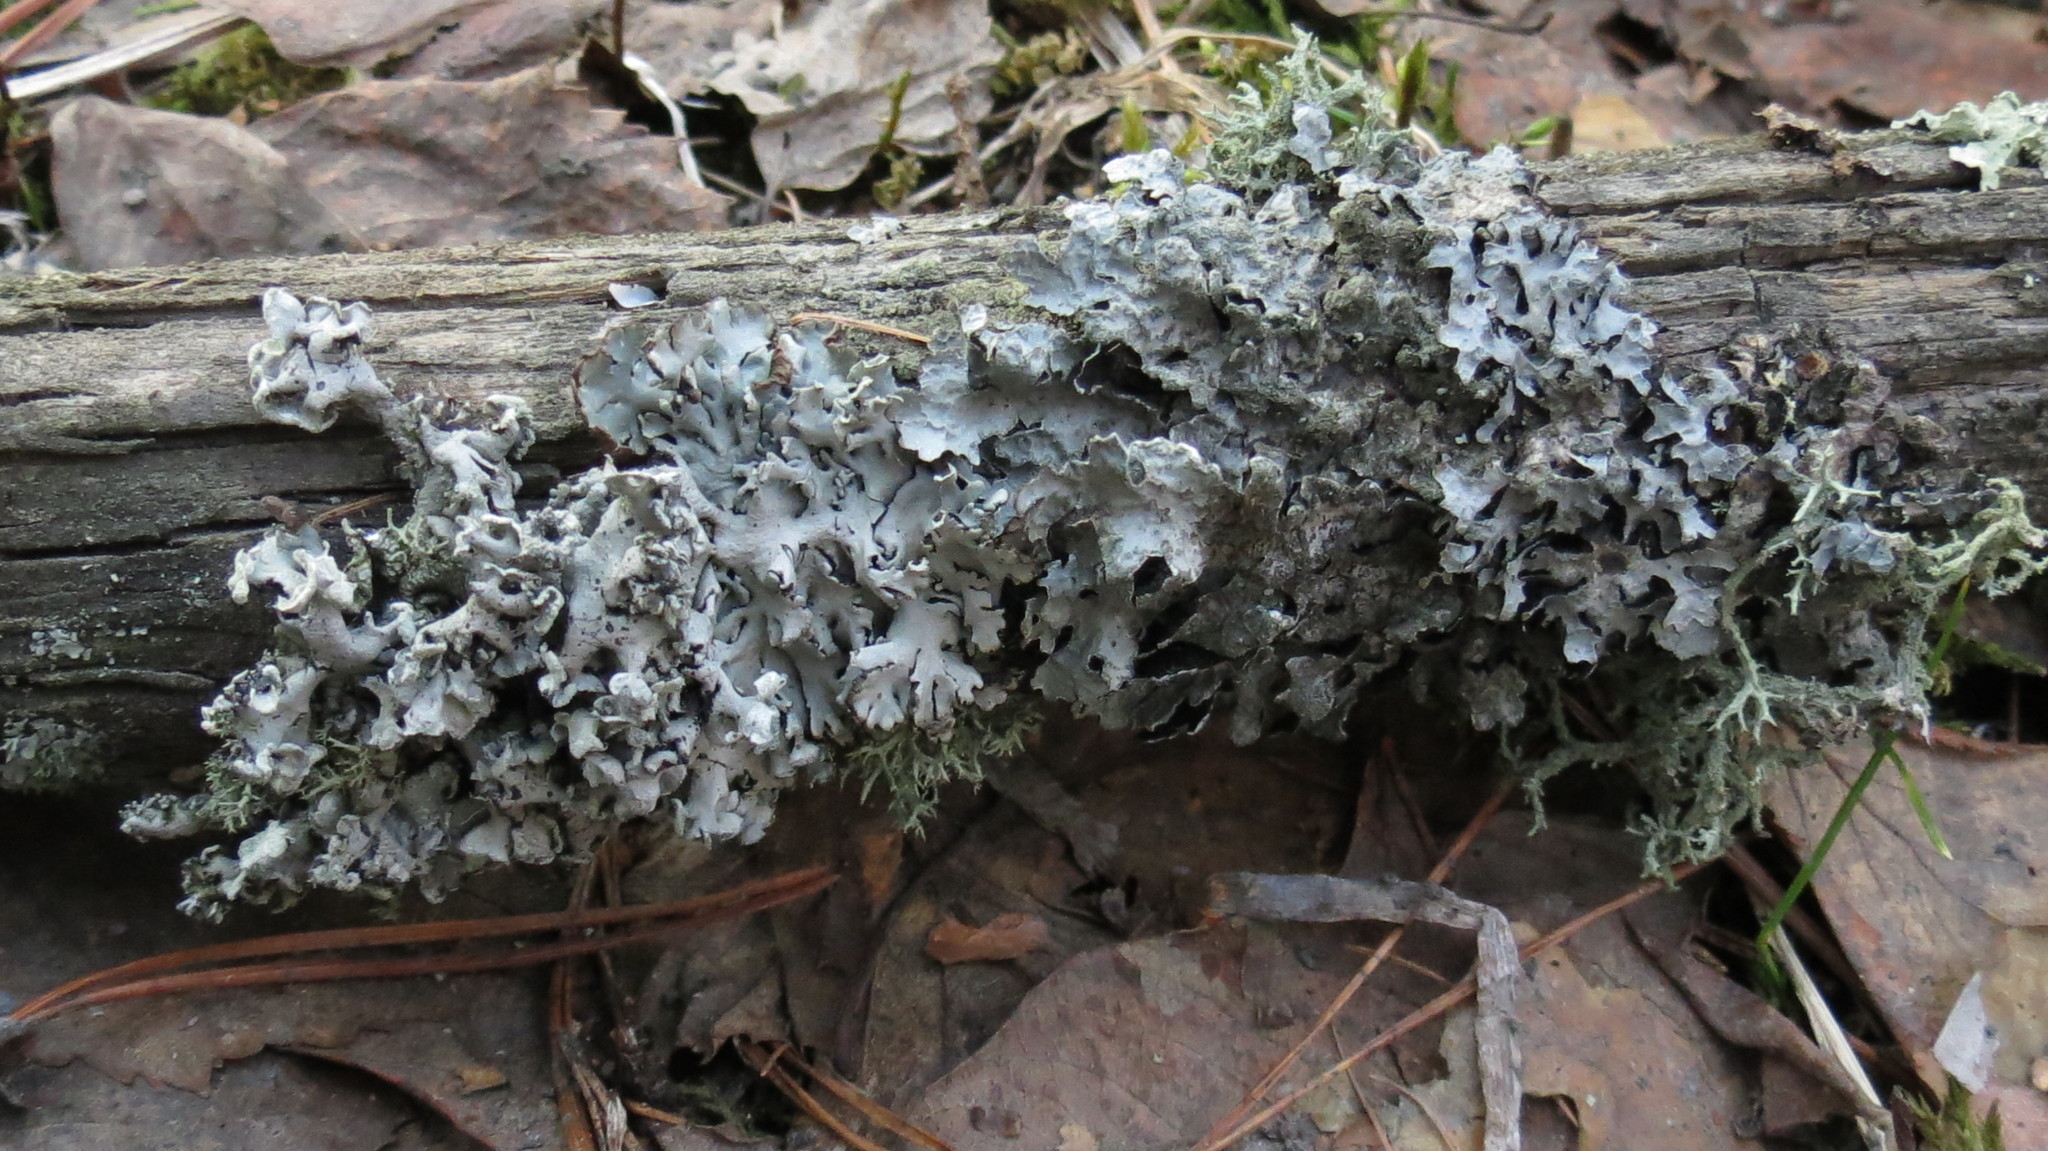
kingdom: Fungi
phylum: Ascomycota
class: Lecanoromycetes
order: Lecanorales
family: Parmeliaceae
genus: Hypogymnia
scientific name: Hypogymnia physodes
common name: Dark crottle
